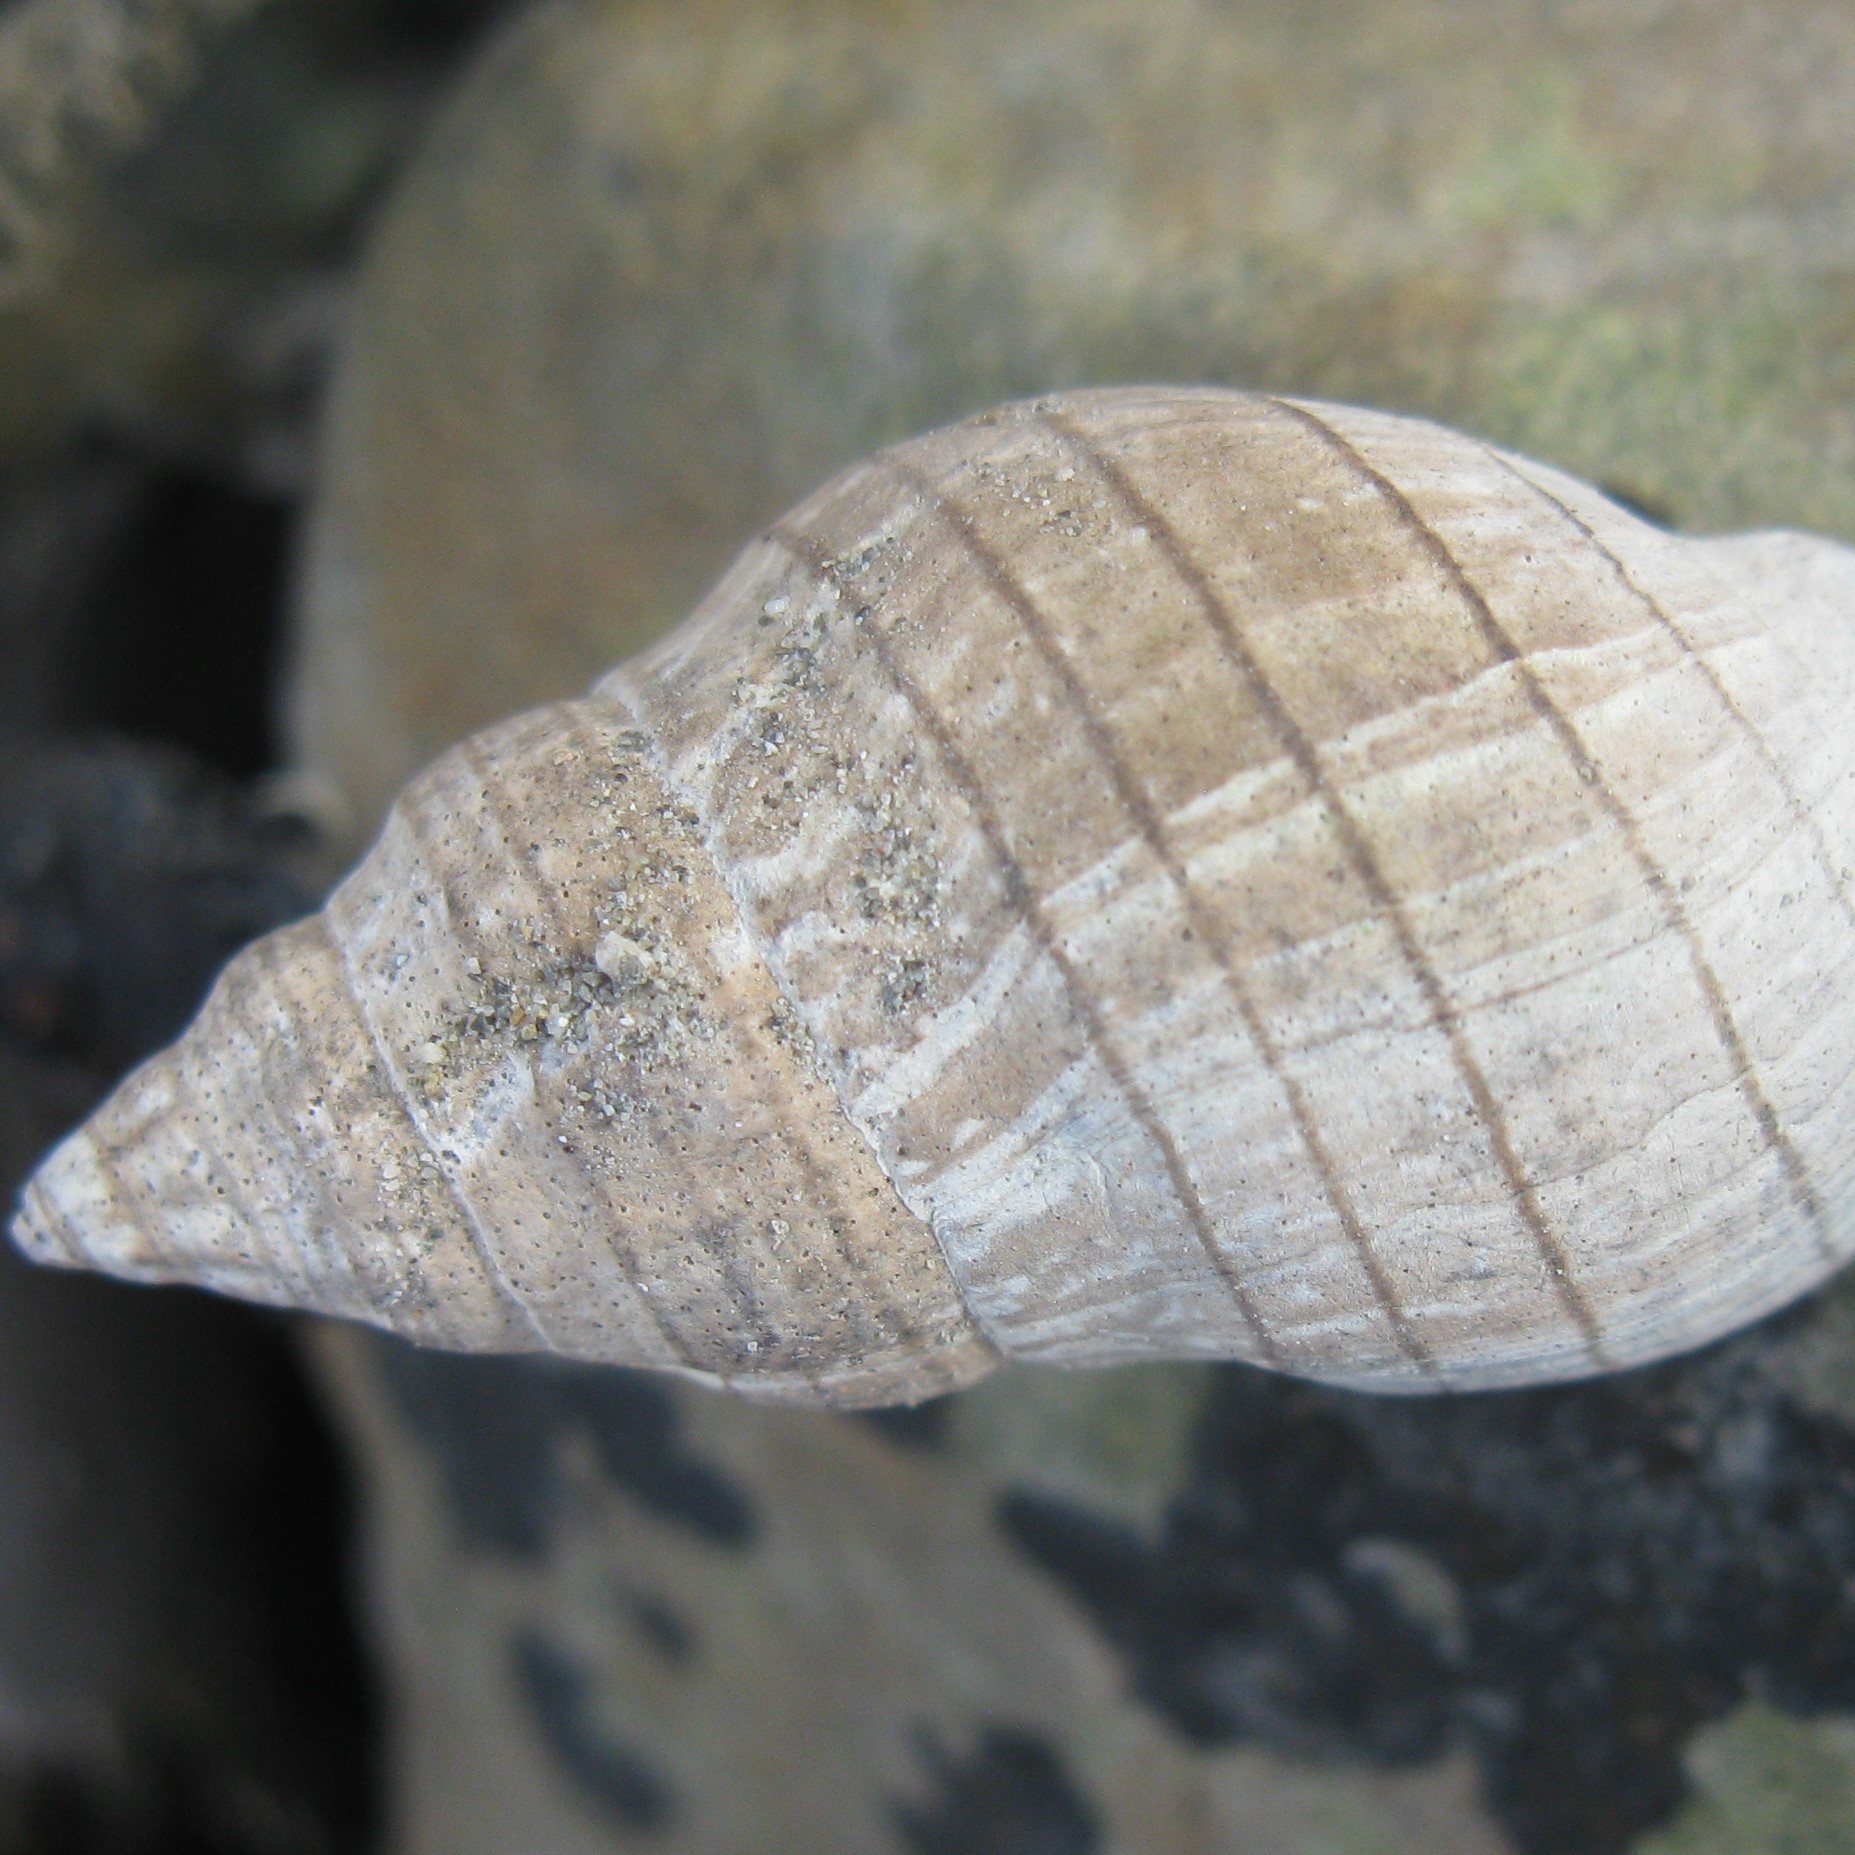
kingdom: Animalia
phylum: Mollusca
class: Gastropoda
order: Neogastropoda
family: Cominellidae
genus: Cominella
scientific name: Cominella virgata
